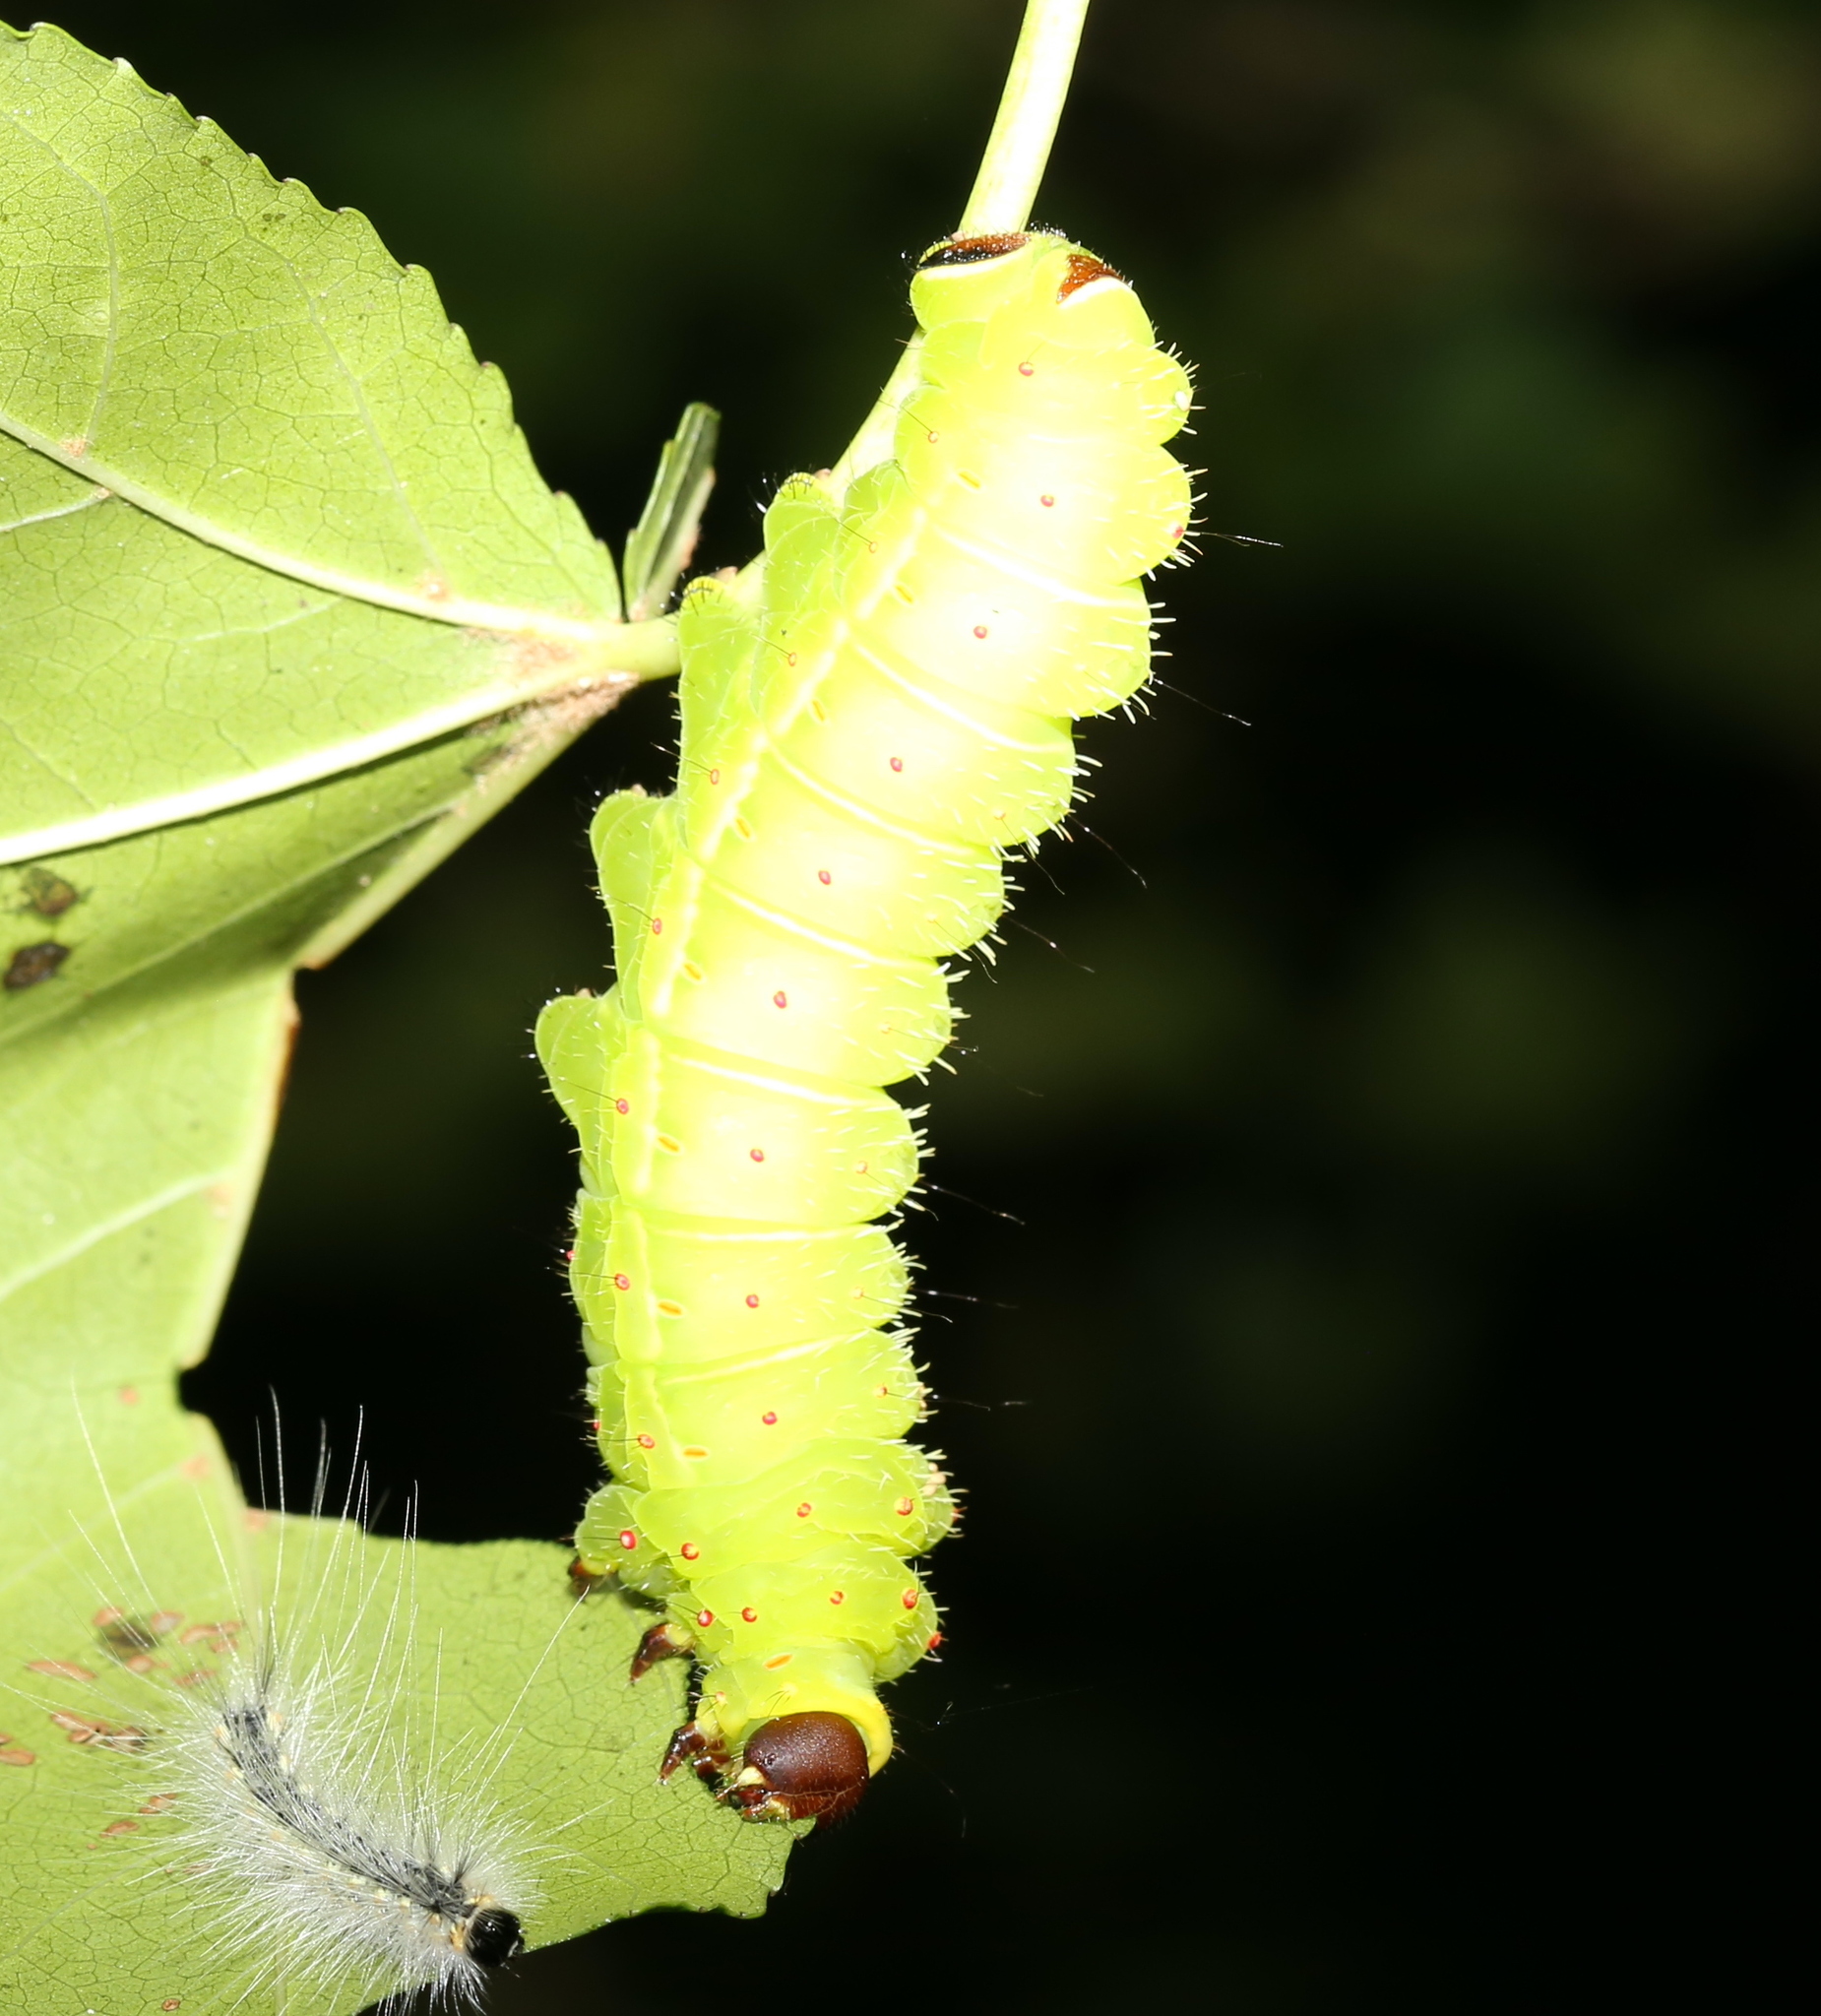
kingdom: Animalia
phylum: Arthropoda
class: Insecta
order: Lepidoptera
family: Saturniidae
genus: Actias
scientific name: Actias luna
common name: Luna moth
